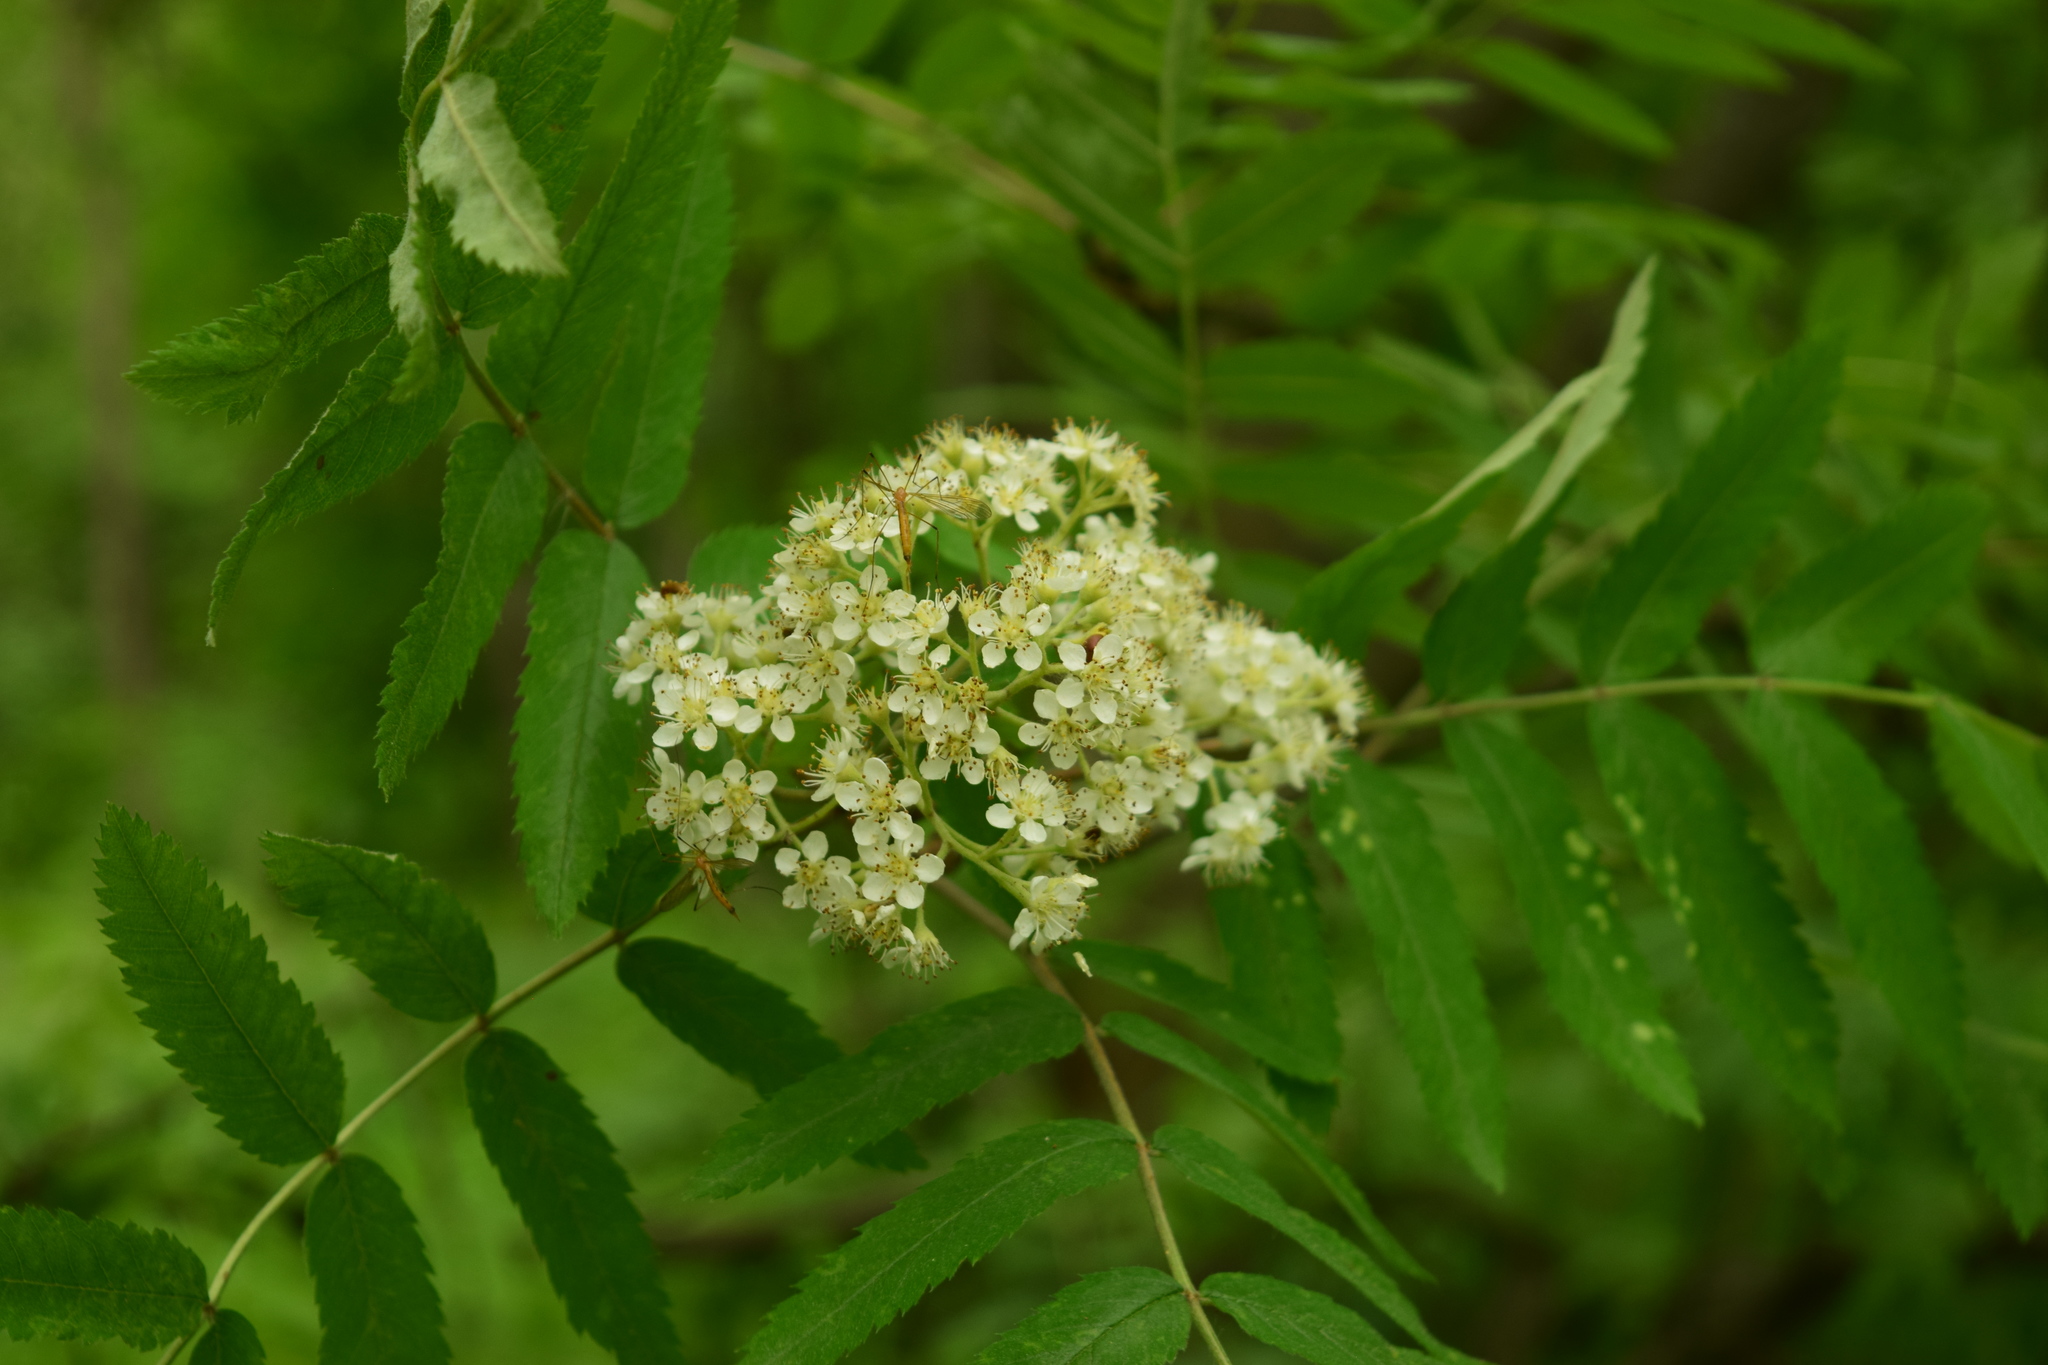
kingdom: Plantae
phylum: Tracheophyta
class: Magnoliopsida
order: Rosales
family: Rosaceae
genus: Sorbus
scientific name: Sorbus aucuparia
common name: Rowan
